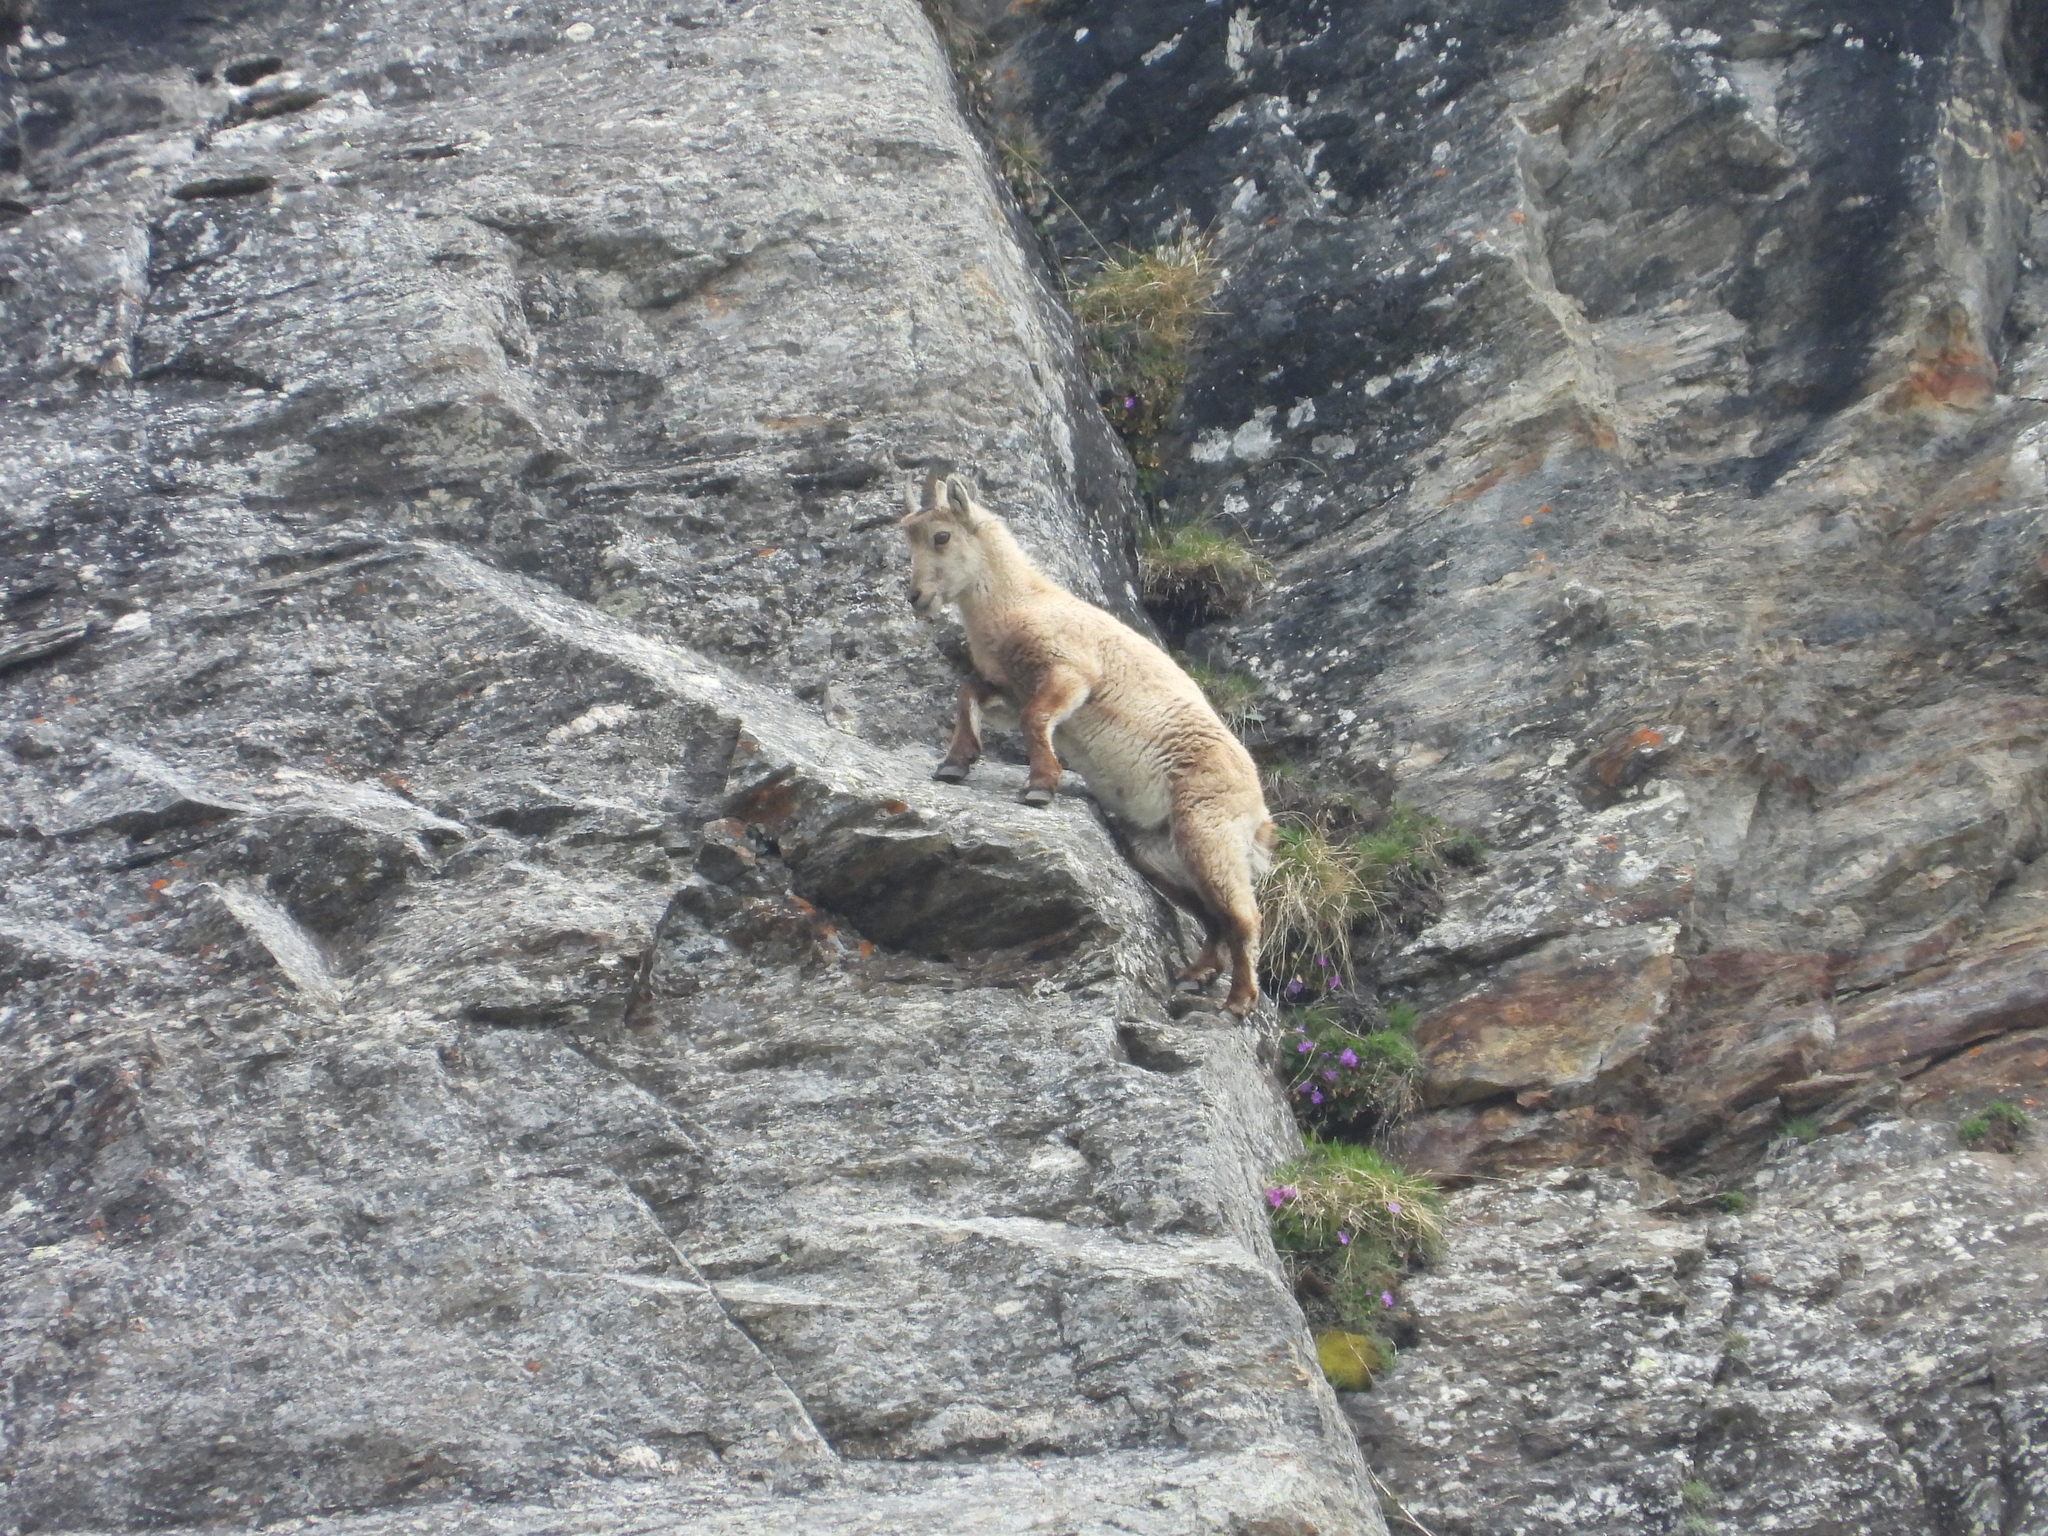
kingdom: Animalia
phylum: Chordata
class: Mammalia
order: Artiodactyla
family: Bovidae
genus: Capra
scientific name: Capra ibex
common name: Alpine ibex
